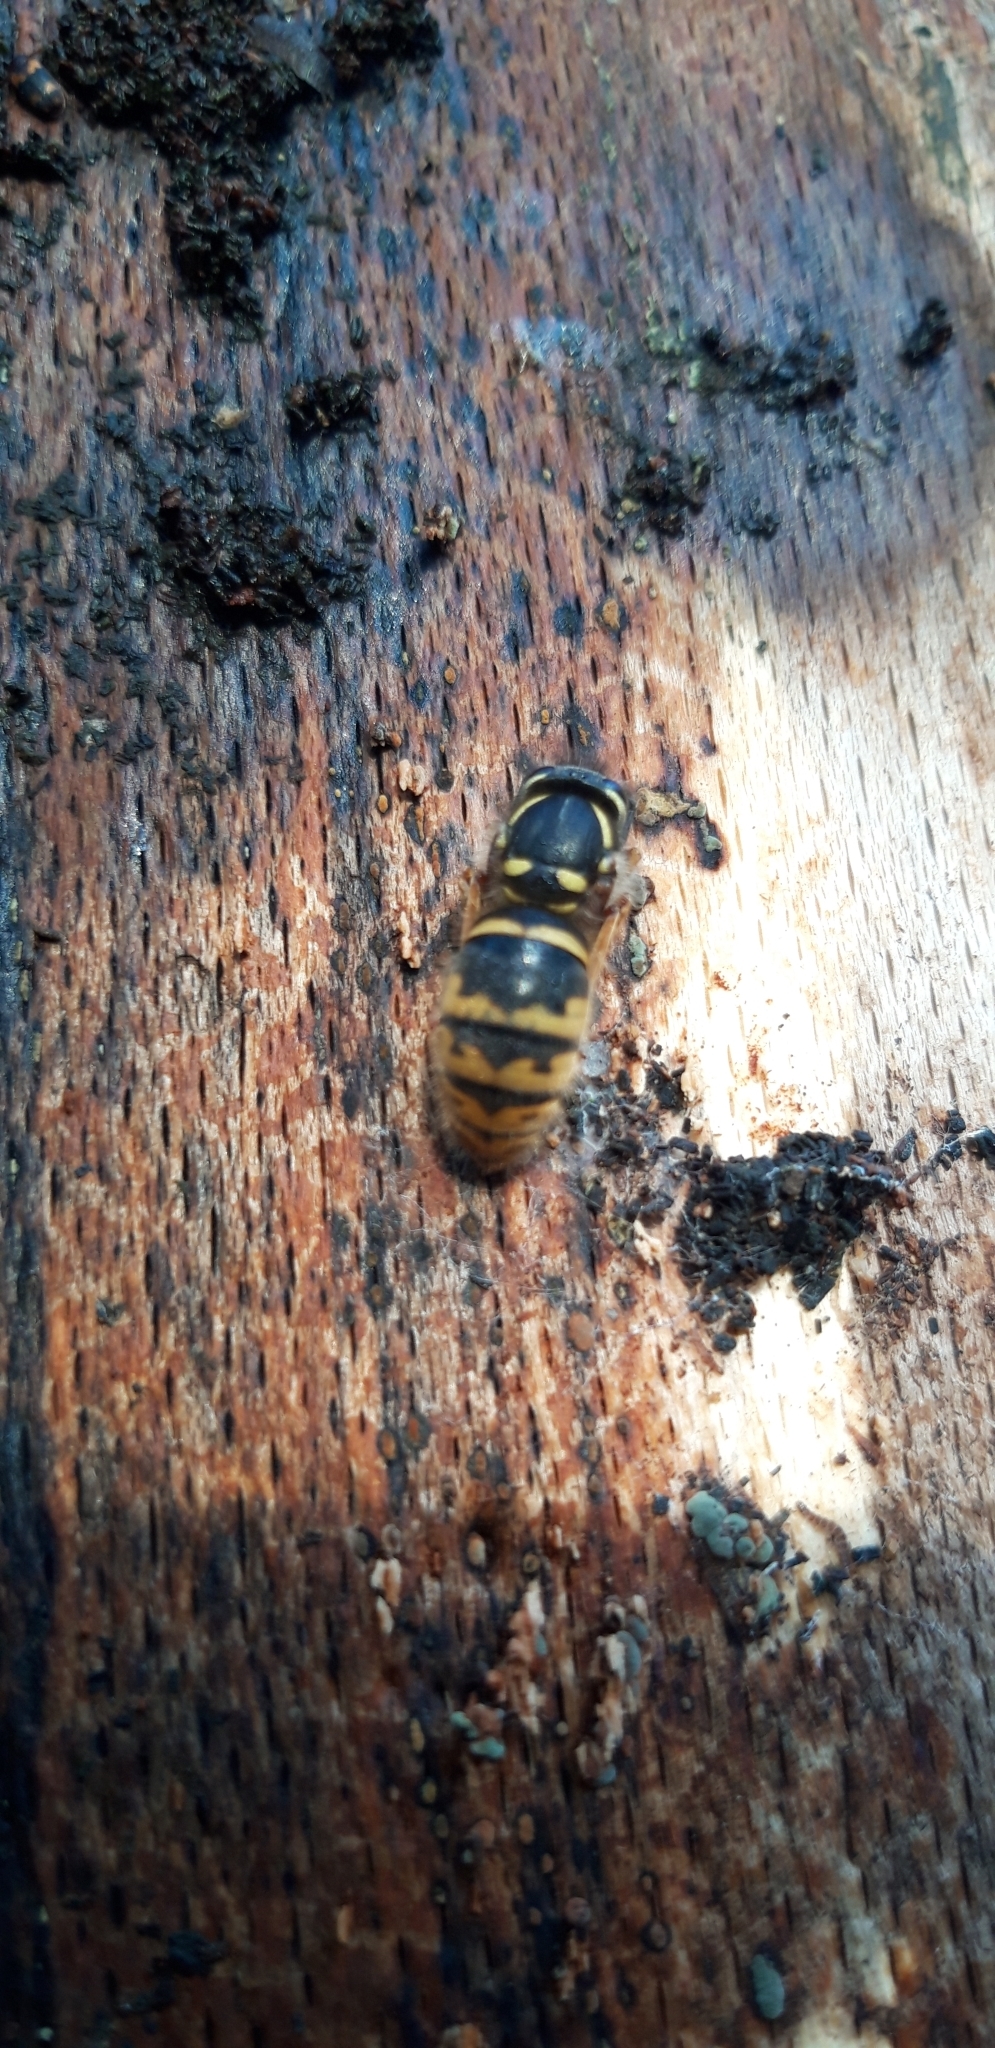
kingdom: Animalia
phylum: Arthropoda
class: Insecta
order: Hymenoptera
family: Vespidae
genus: Vespula
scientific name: Vespula vulgaris
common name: Common wasp
